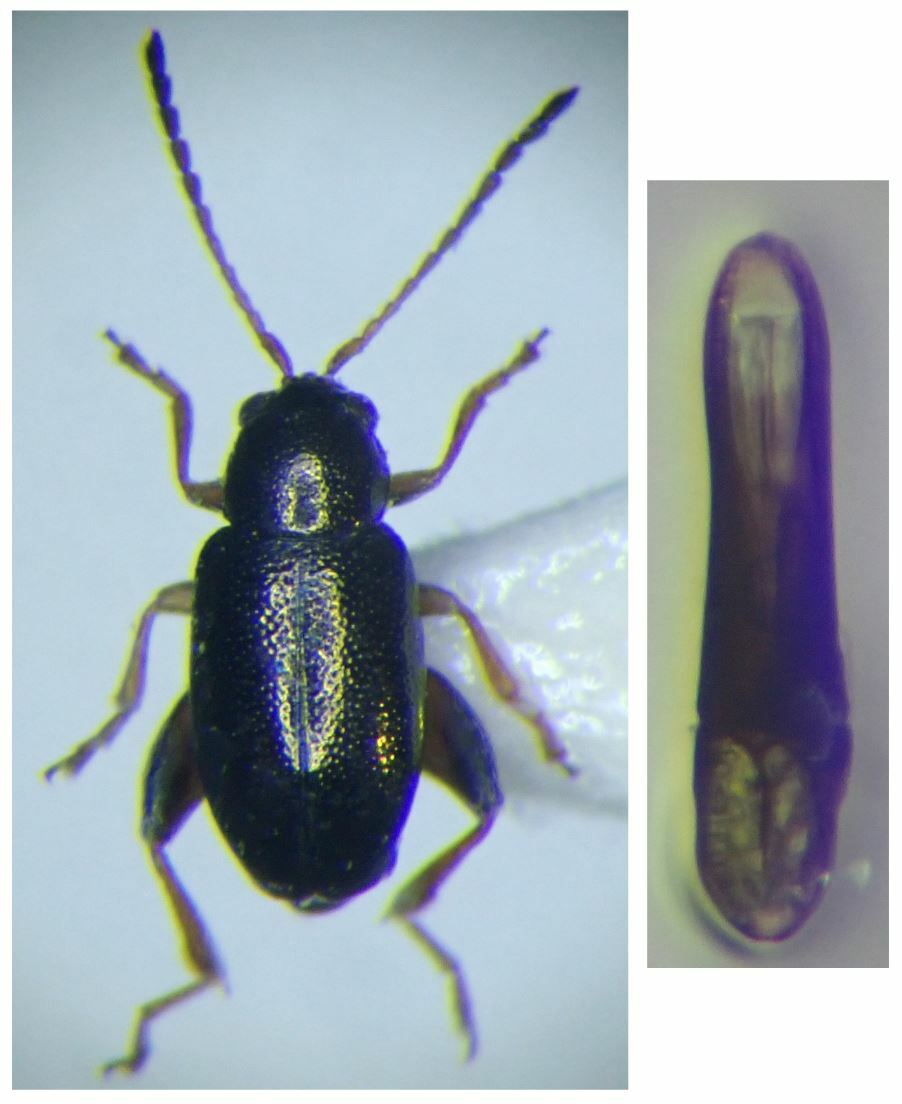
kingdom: Animalia
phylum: Arthropoda
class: Insecta
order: Coleoptera
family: Chrysomelidae
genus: Longitarsus
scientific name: Longitarsus aeneus
